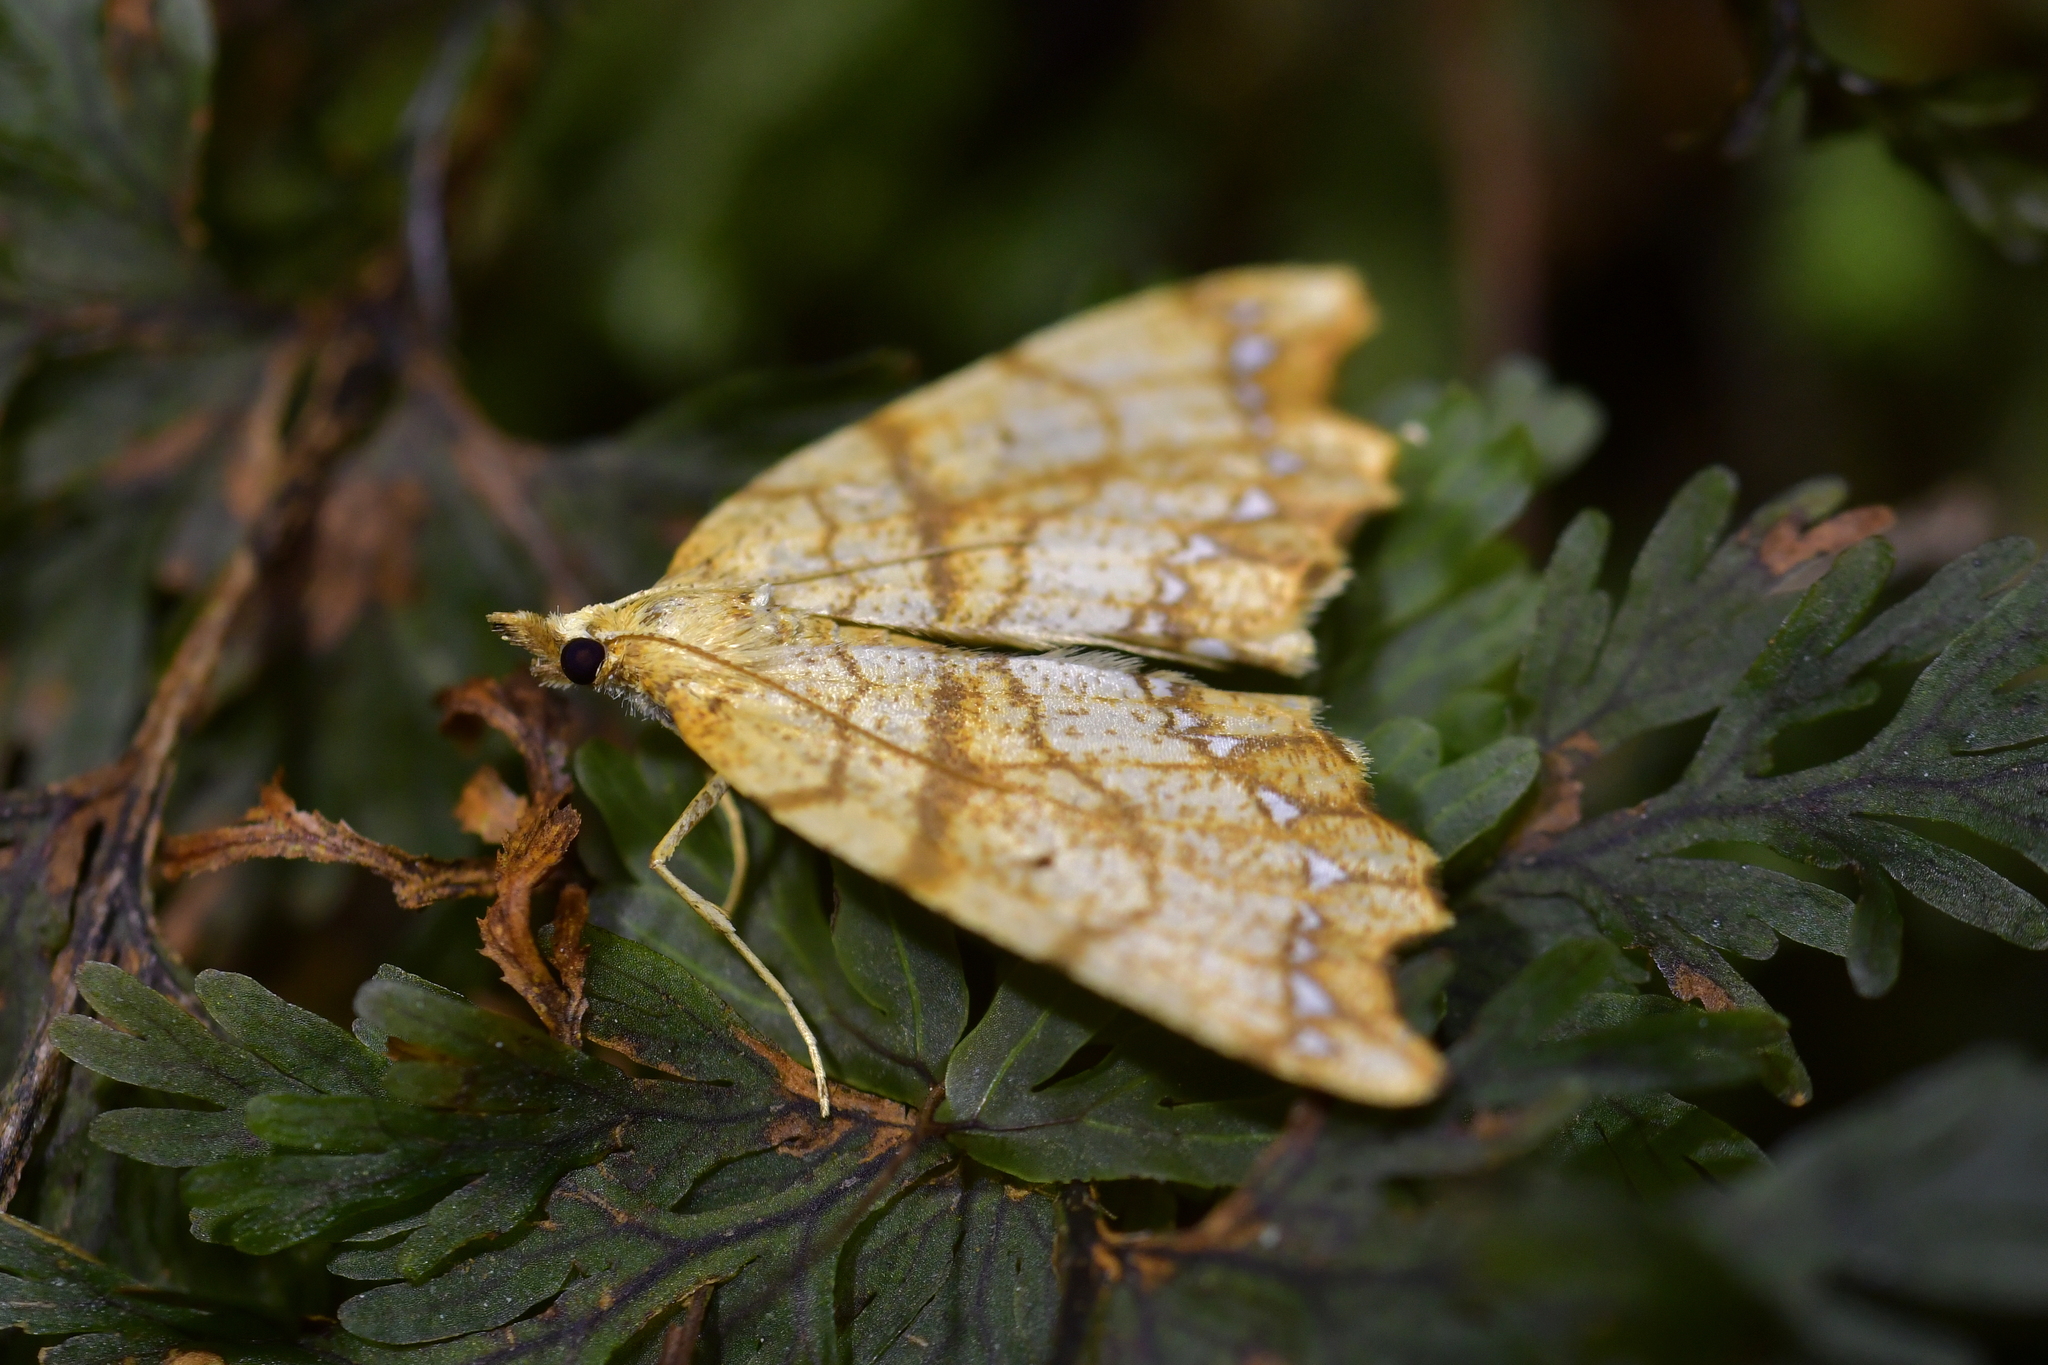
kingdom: Animalia
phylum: Arthropoda
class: Insecta
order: Lepidoptera
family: Geometridae
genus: Chalastra
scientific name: Chalastra pellurgata
